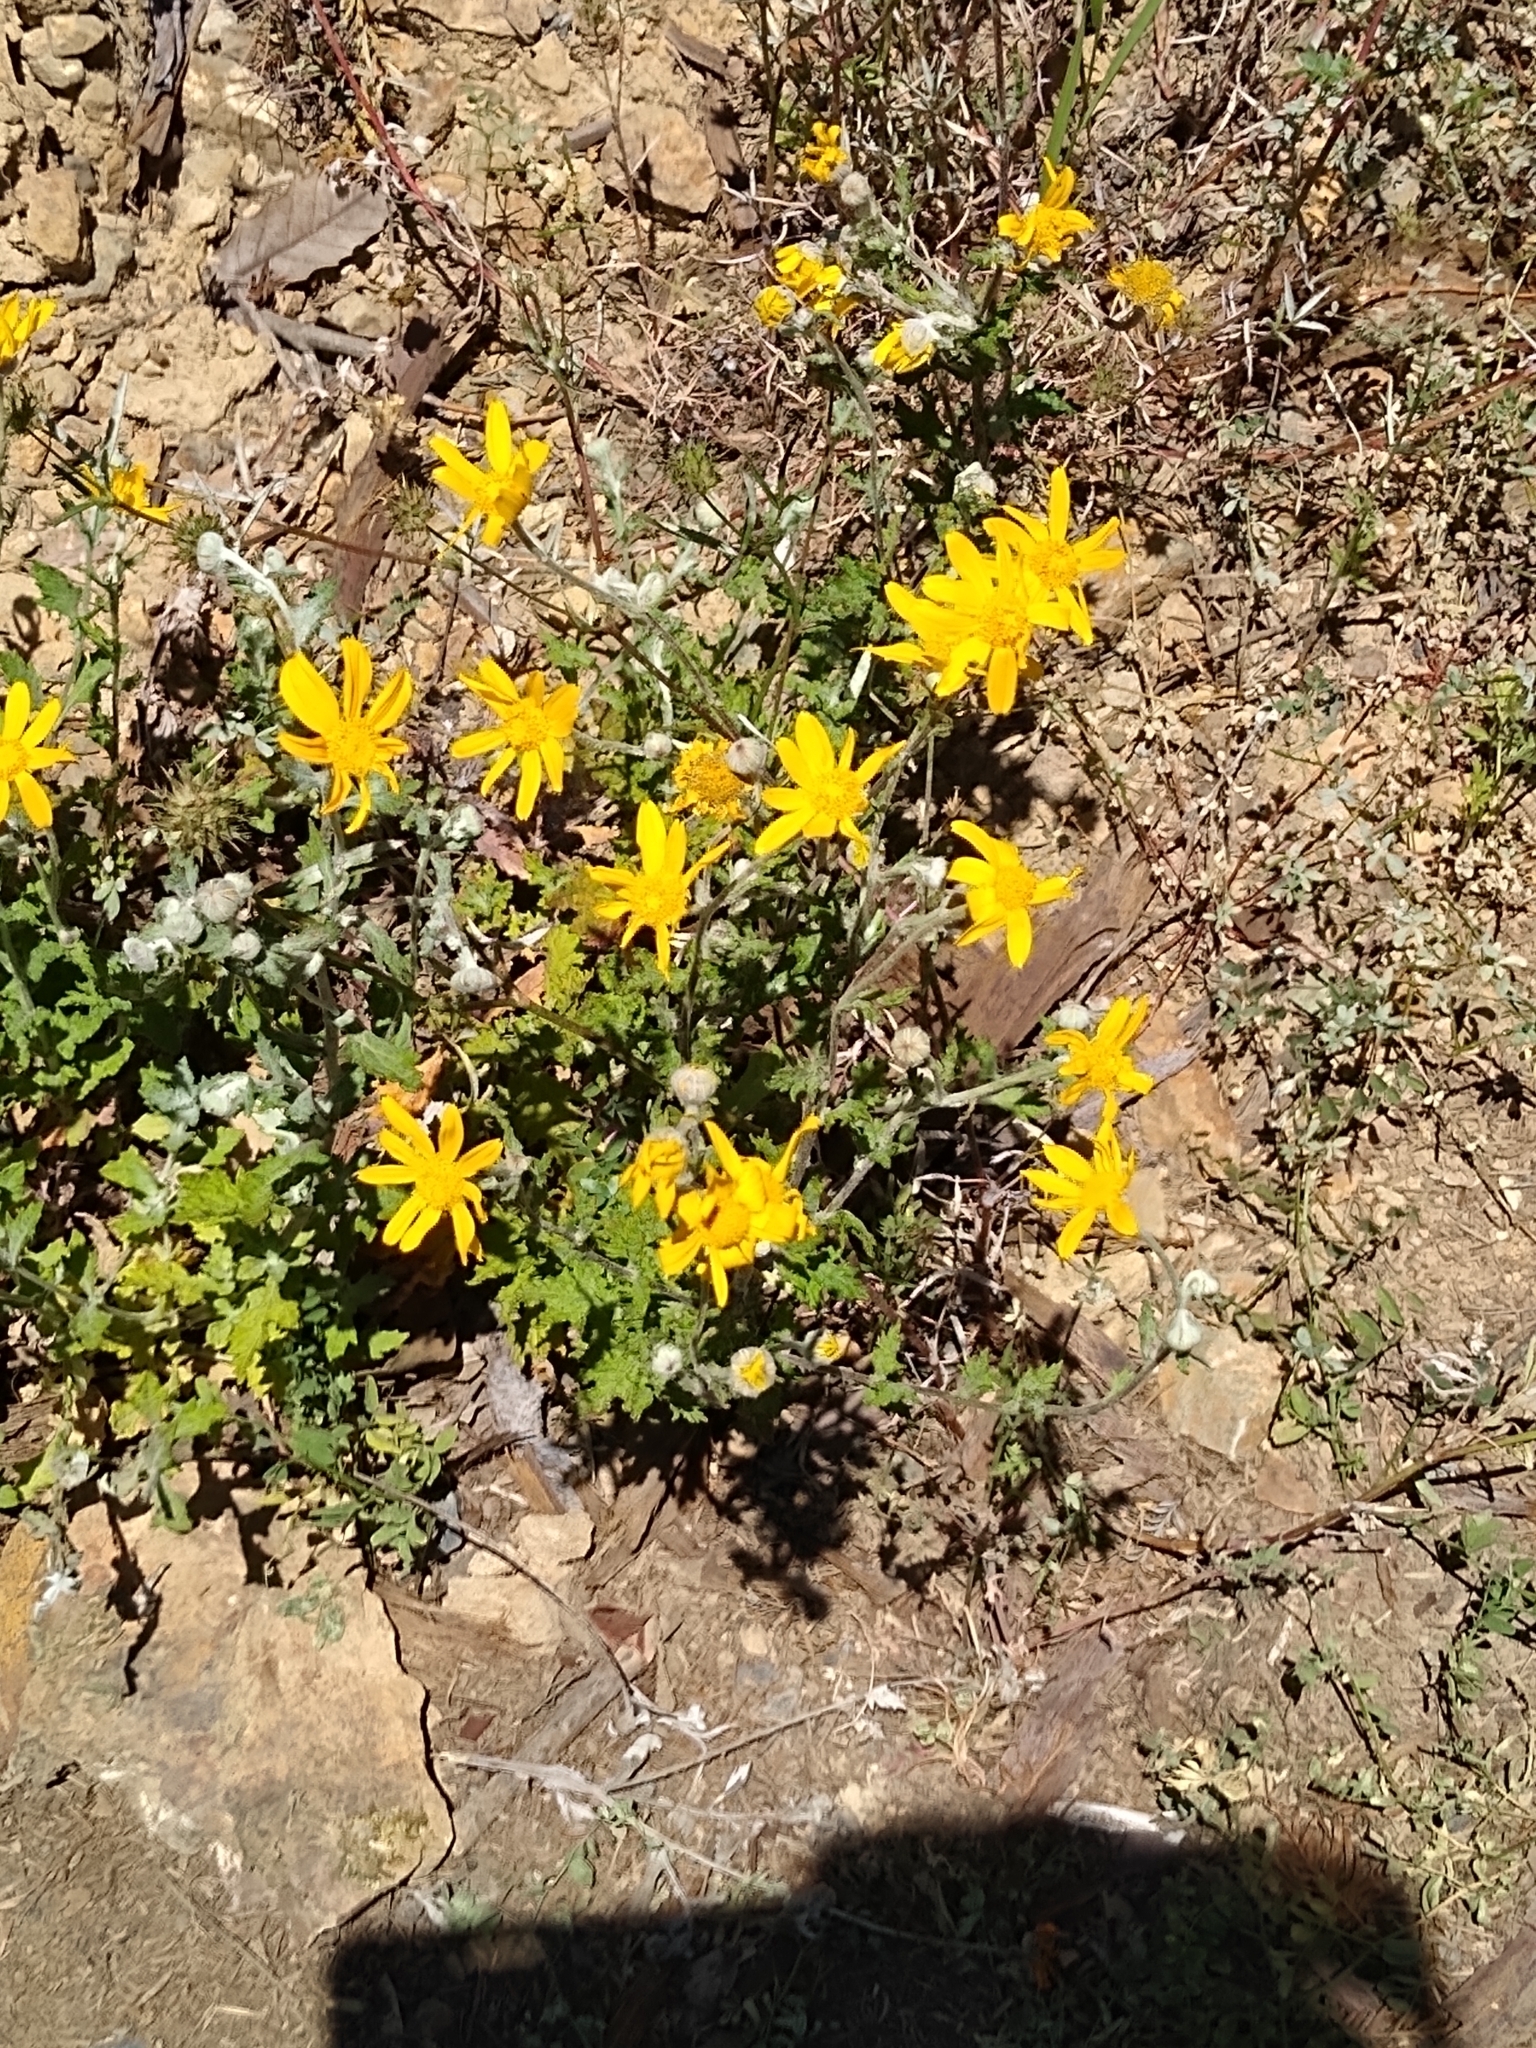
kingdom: Plantae
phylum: Tracheophyta
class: Magnoliopsida
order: Asterales
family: Asteraceae
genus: Eriophyllum
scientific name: Eriophyllum lanatum
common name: Common woolly-sunflower
